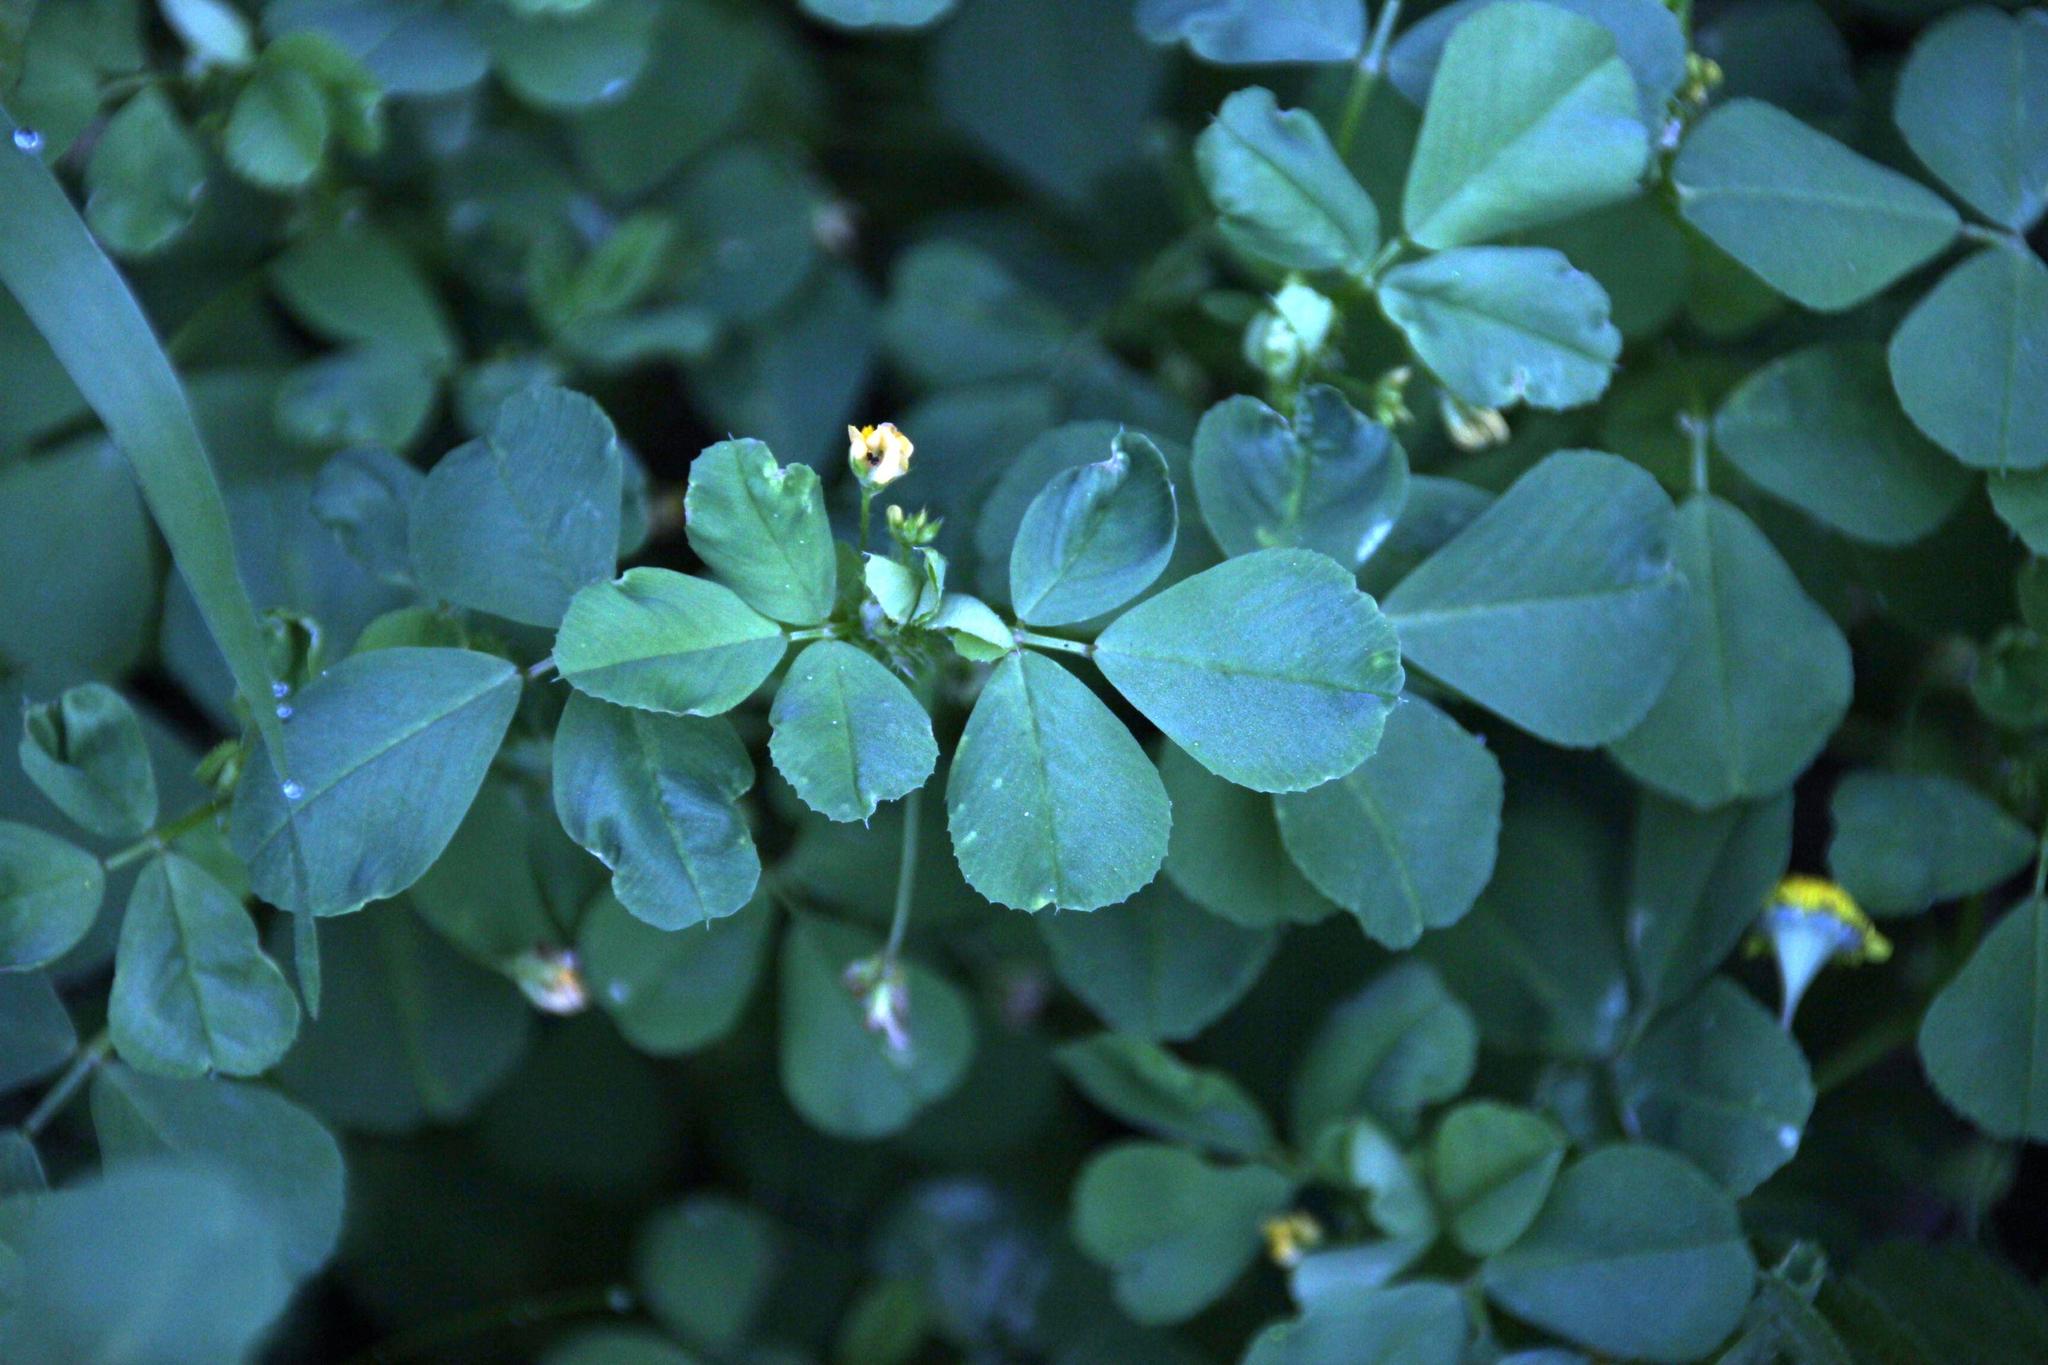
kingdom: Plantae
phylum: Tracheophyta
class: Magnoliopsida
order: Fabales
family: Fabaceae
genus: Medicago
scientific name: Medicago polymorpha
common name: Burclover
